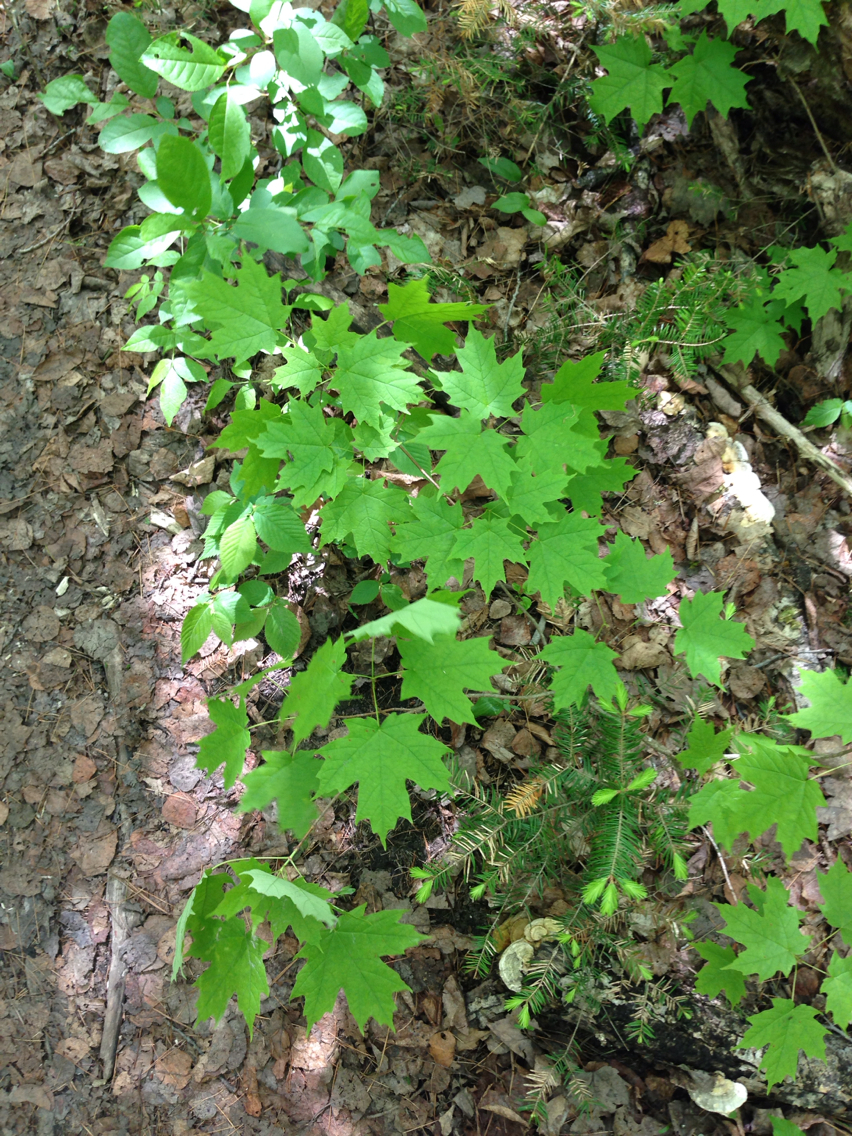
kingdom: Plantae
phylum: Tracheophyta
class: Magnoliopsida
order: Sapindales
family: Sapindaceae
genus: Acer
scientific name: Acer saccharum
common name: Sugar maple
